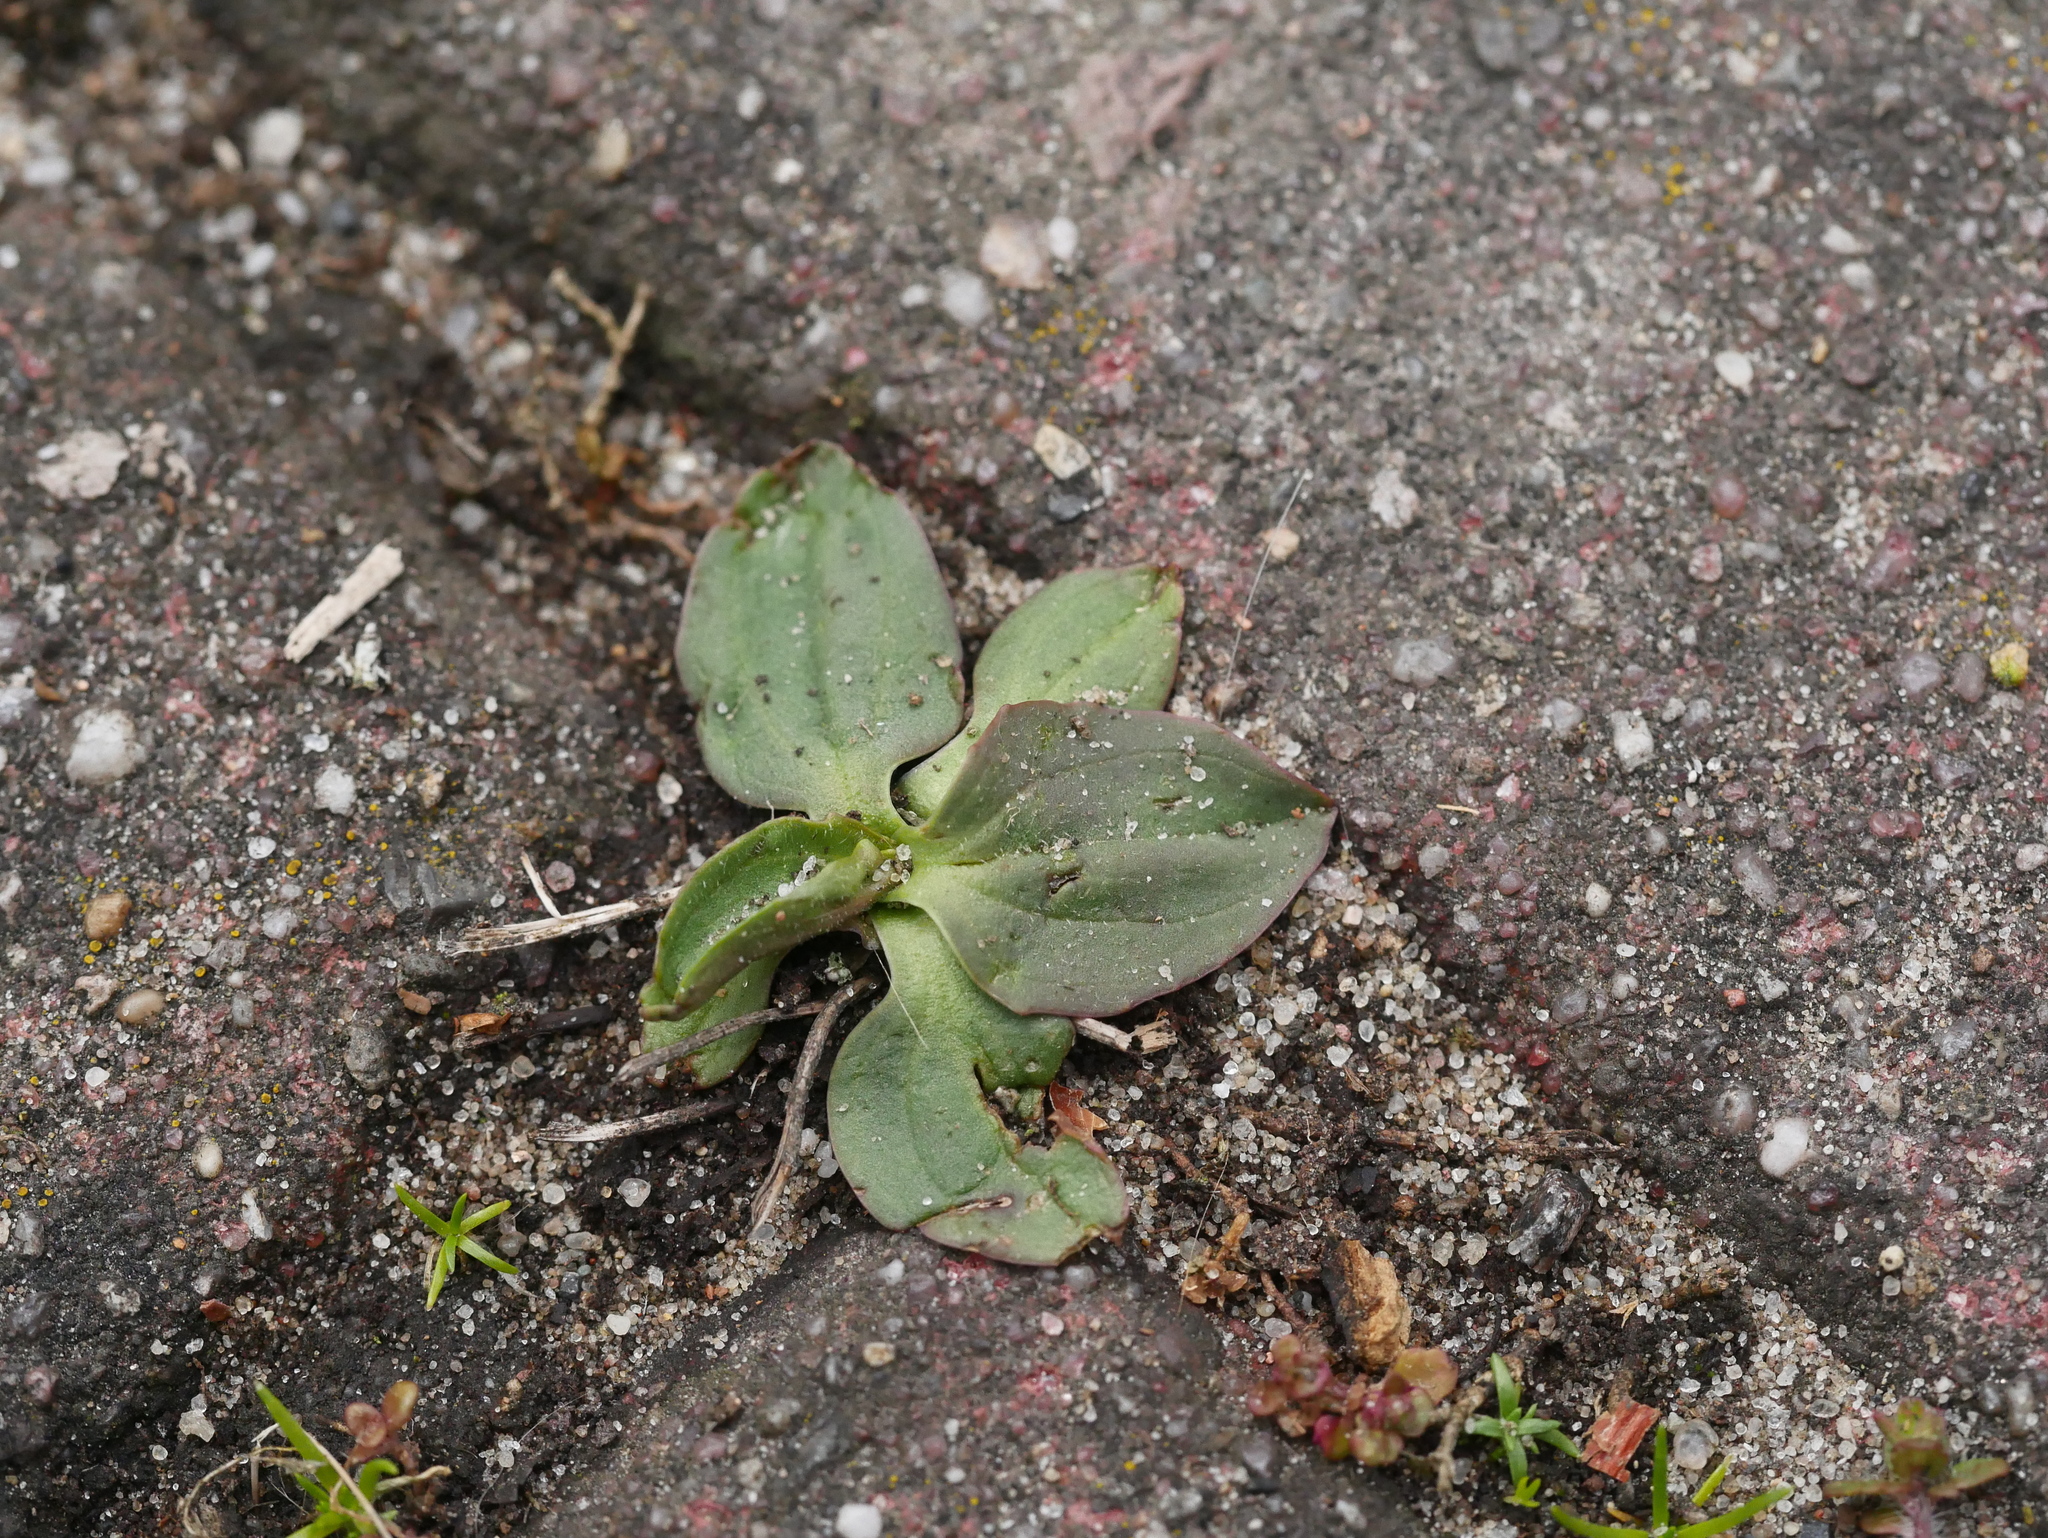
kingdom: Plantae
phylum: Tracheophyta
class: Magnoliopsida
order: Lamiales
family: Plantaginaceae
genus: Plantago
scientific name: Plantago major
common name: Common plantain
